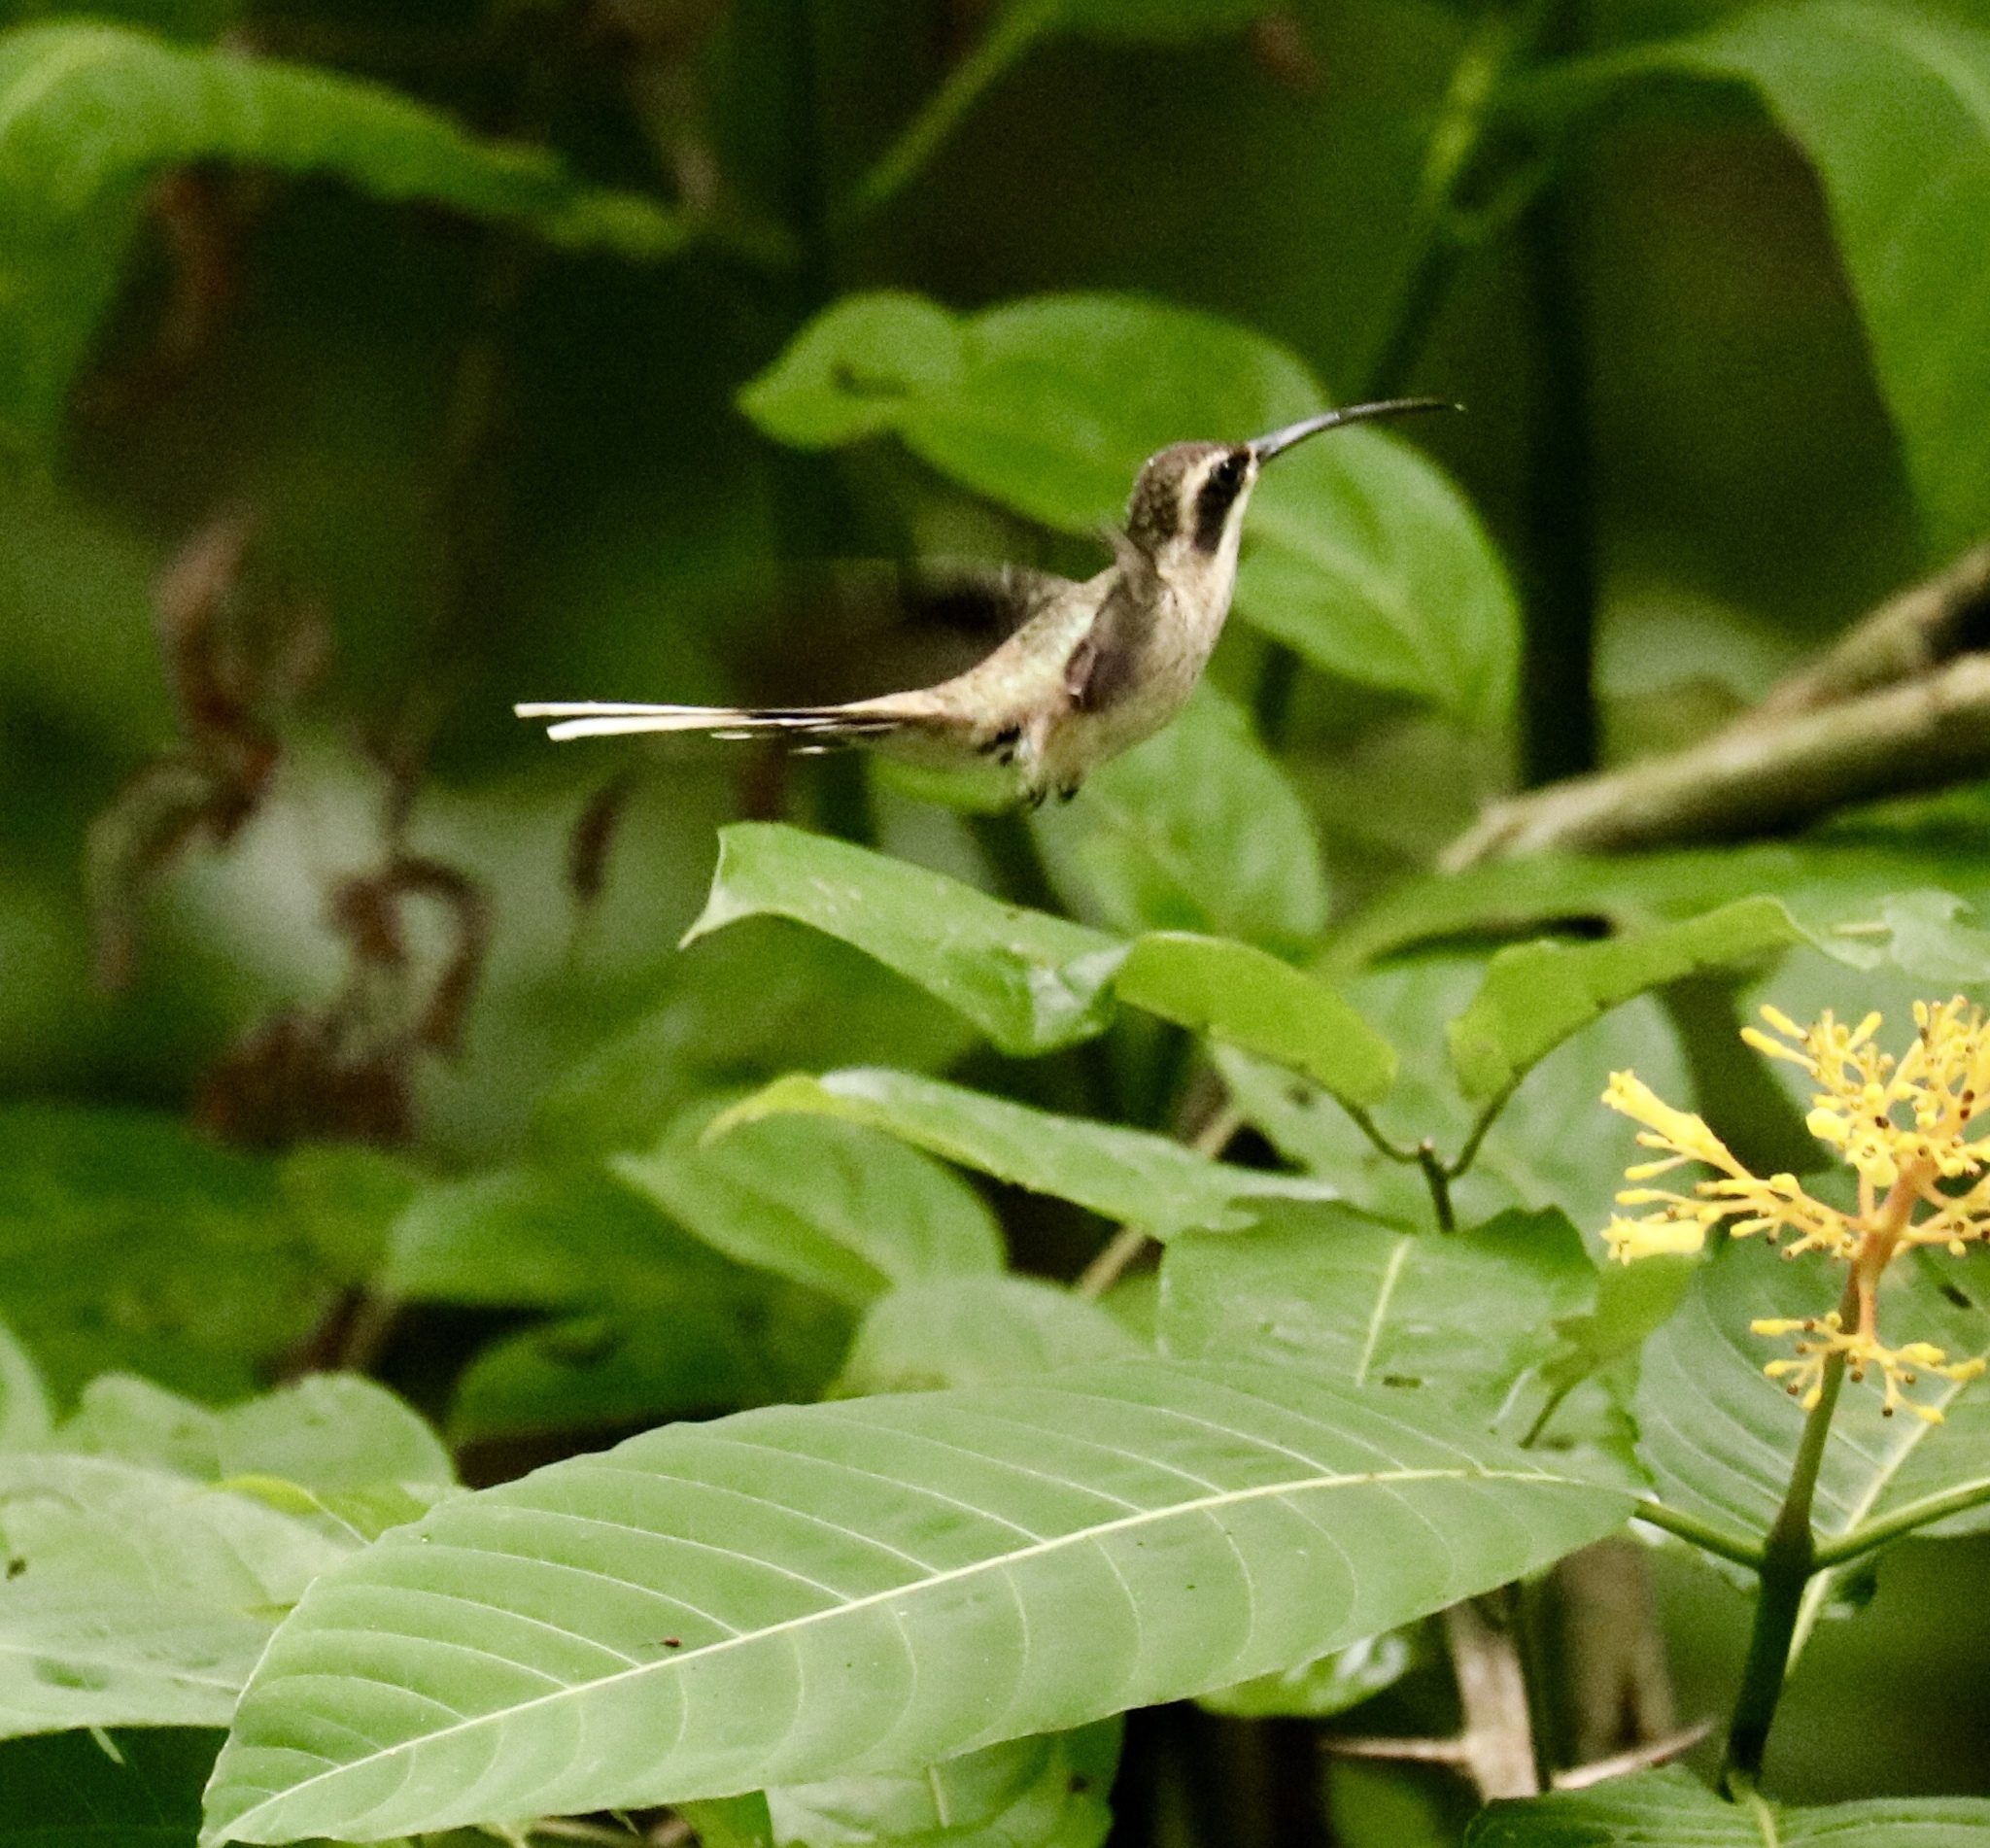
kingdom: Animalia
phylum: Chordata
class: Aves
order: Apodiformes
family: Trochilidae
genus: Phaethornis
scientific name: Phaethornis anthophilus
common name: Pale-bellied hermit
